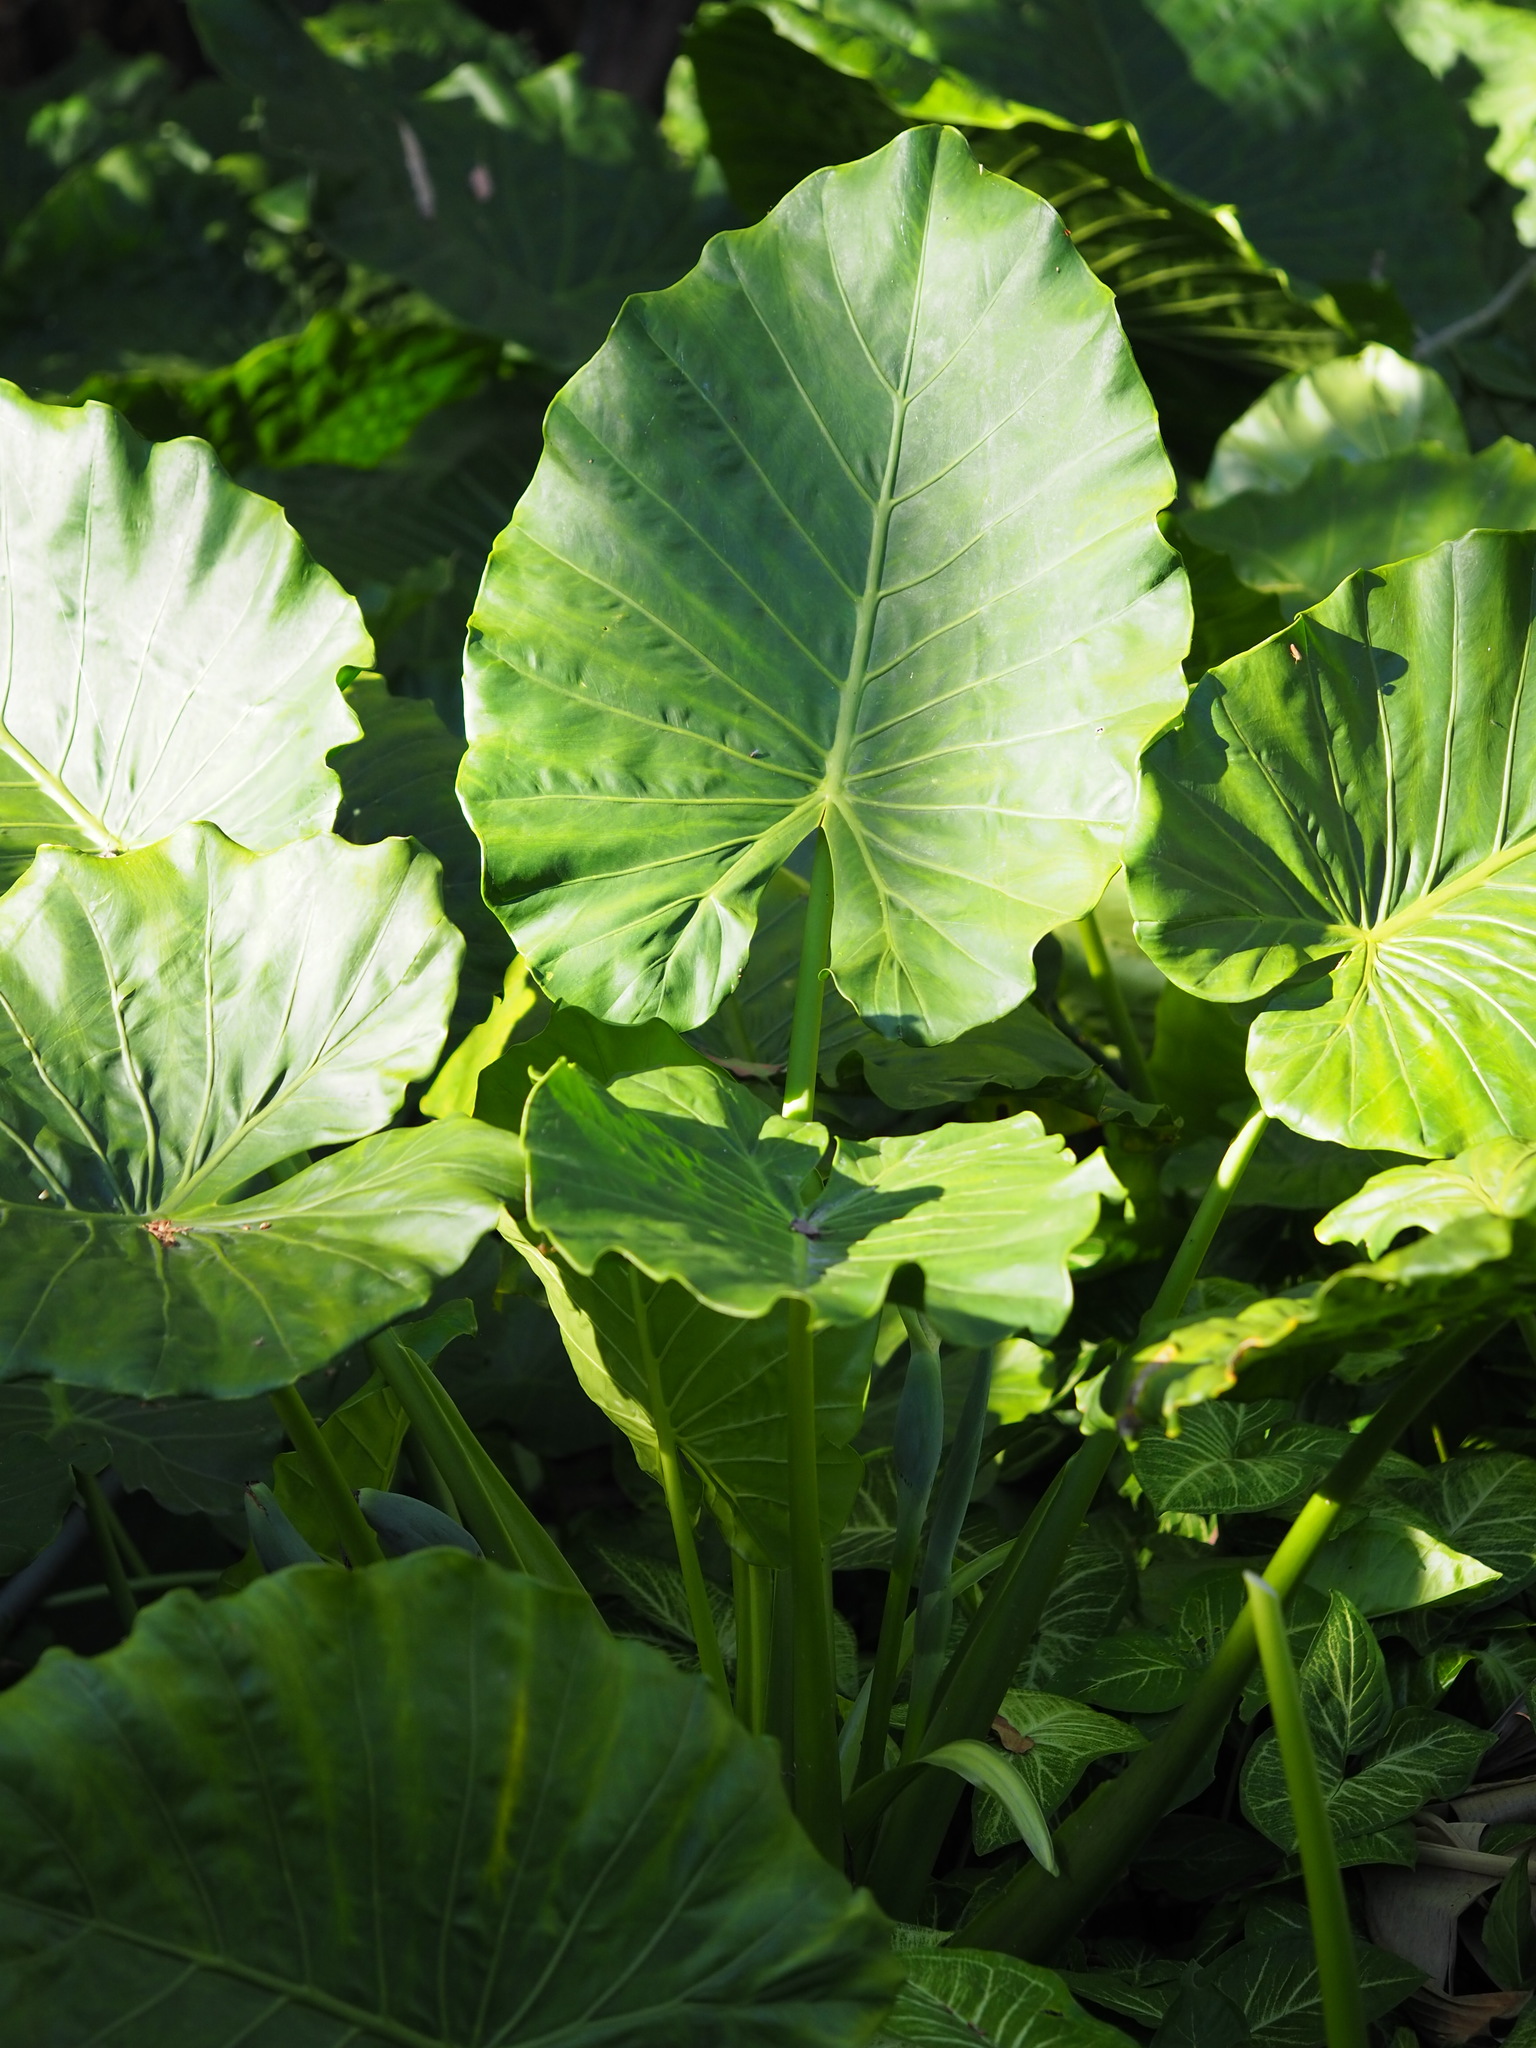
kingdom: Plantae
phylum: Tracheophyta
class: Liliopsida
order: Alismatales
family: Araceae
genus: Alocasia
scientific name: Alocasia odora
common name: Asian taro
